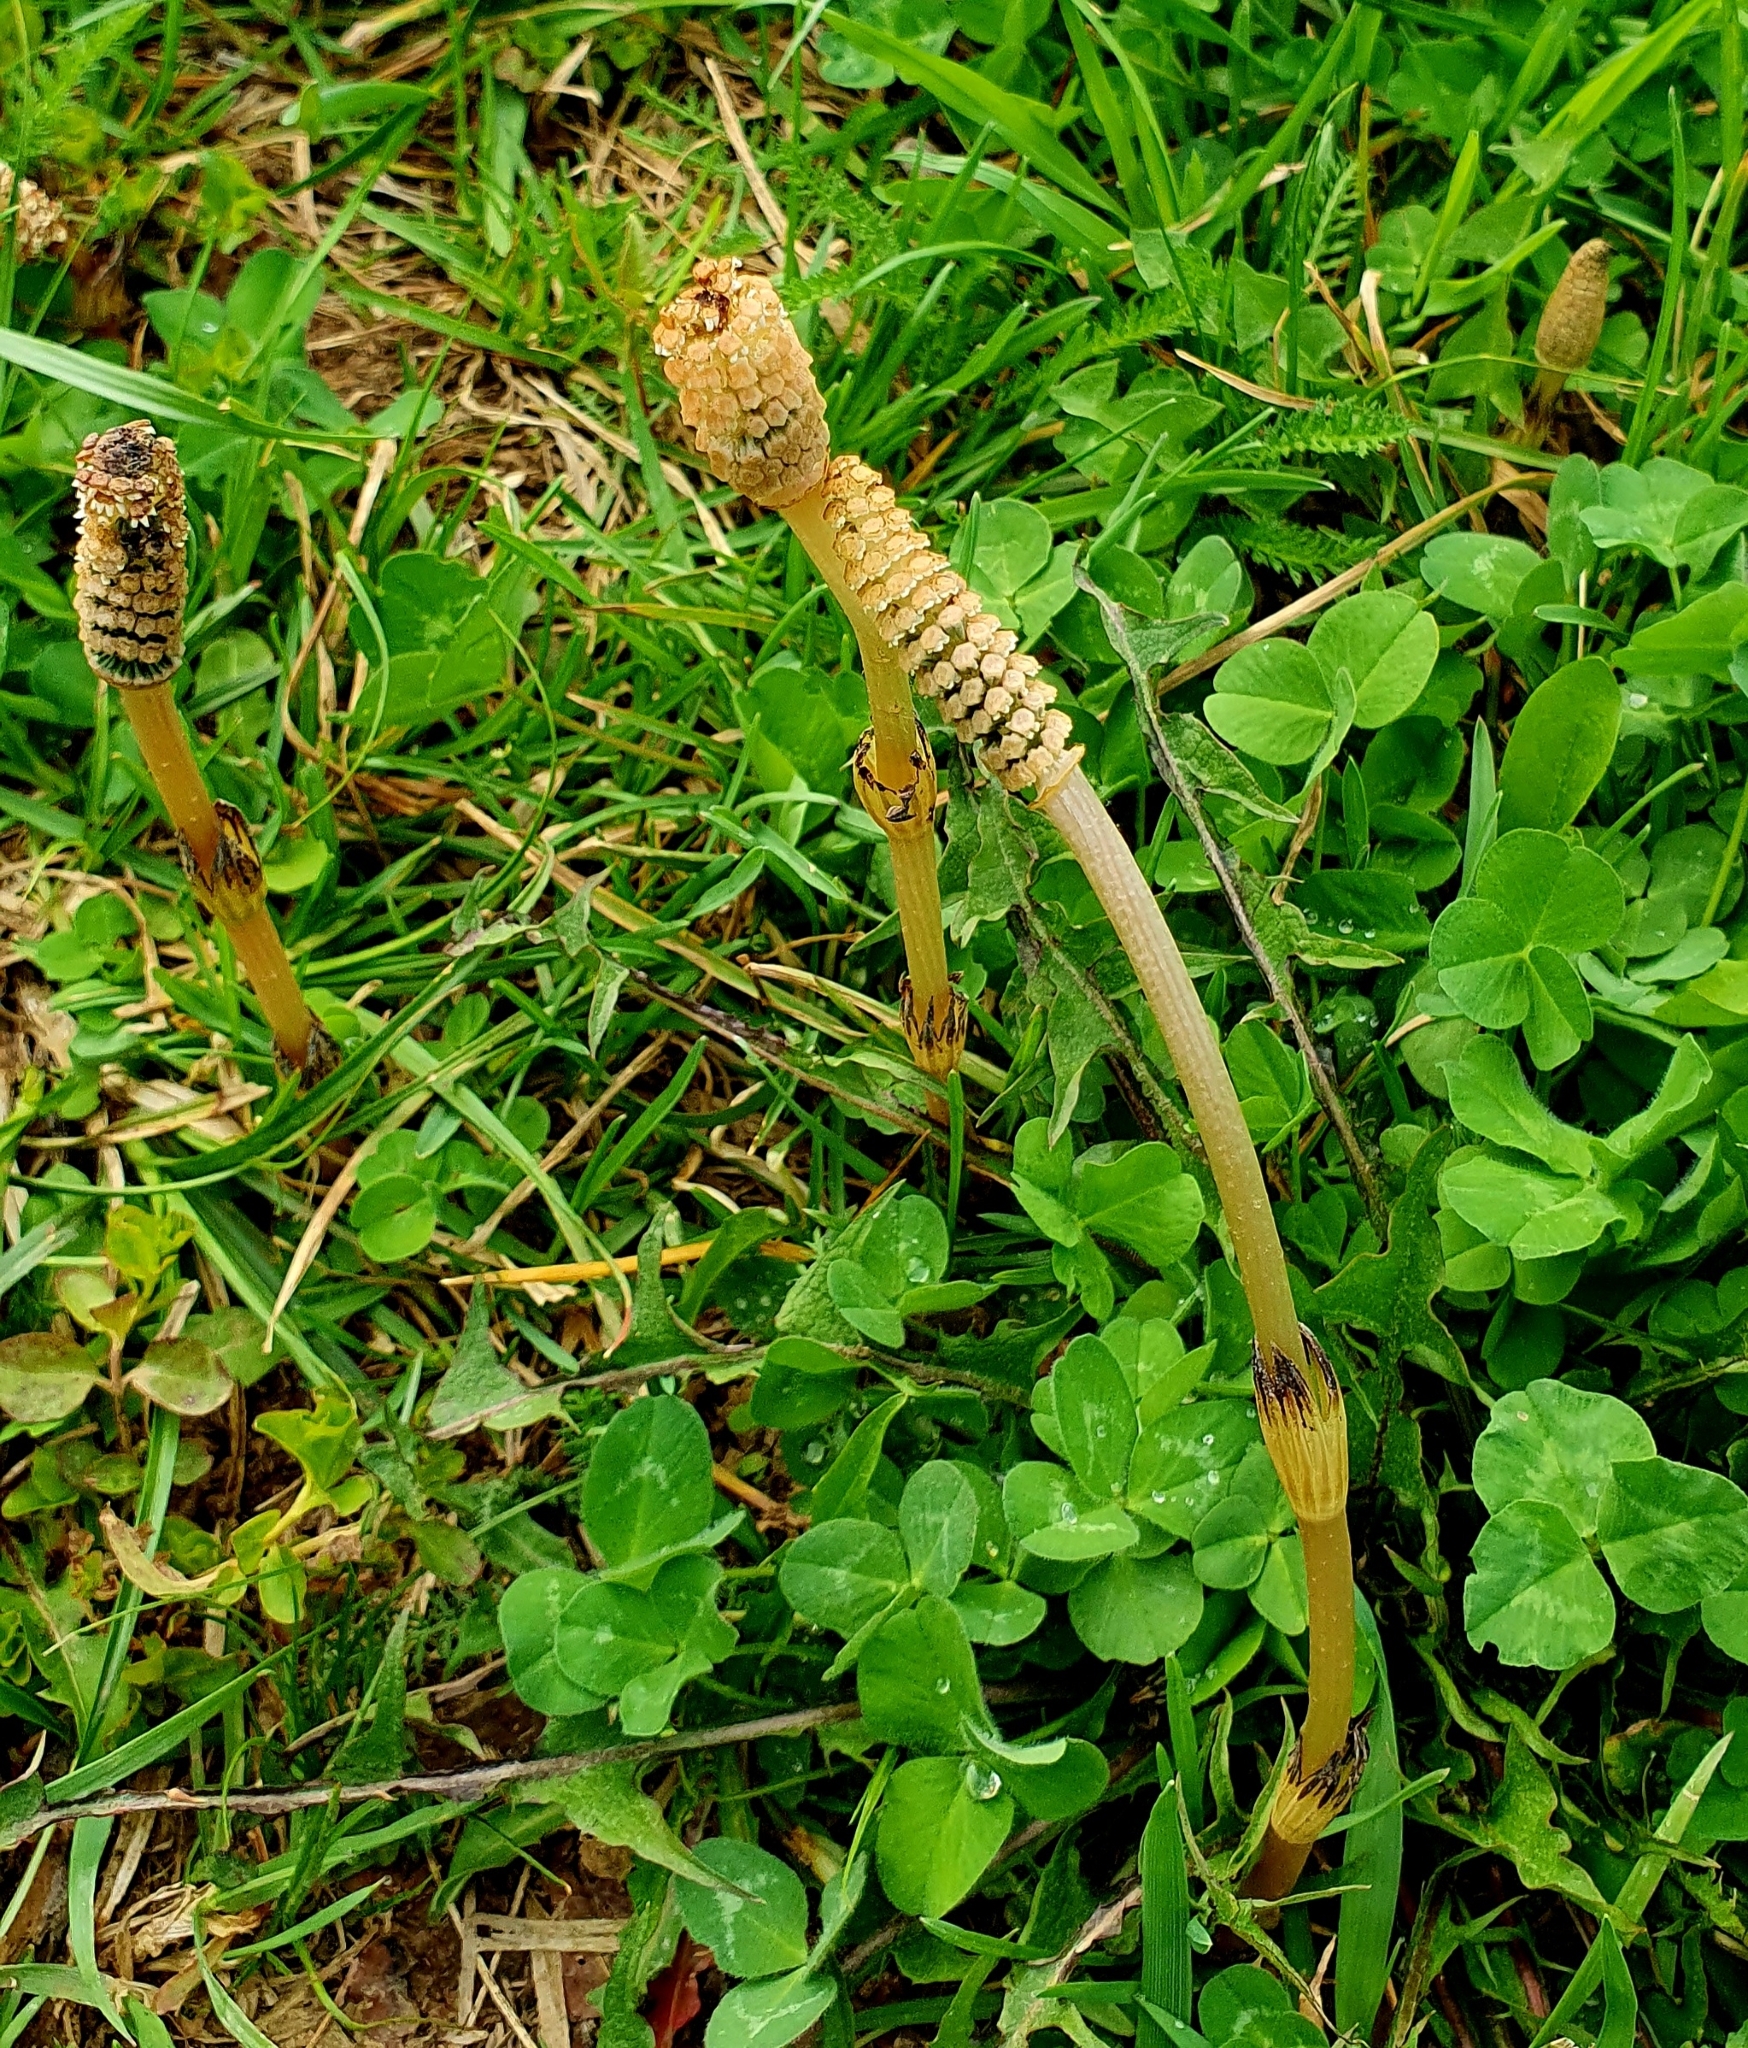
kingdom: Plantae
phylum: Tracheophyta
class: Polypodiopsida
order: Equisetales
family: Equisetaceae
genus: Equisetum
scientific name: Equisetum arvense
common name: Field horsetail
